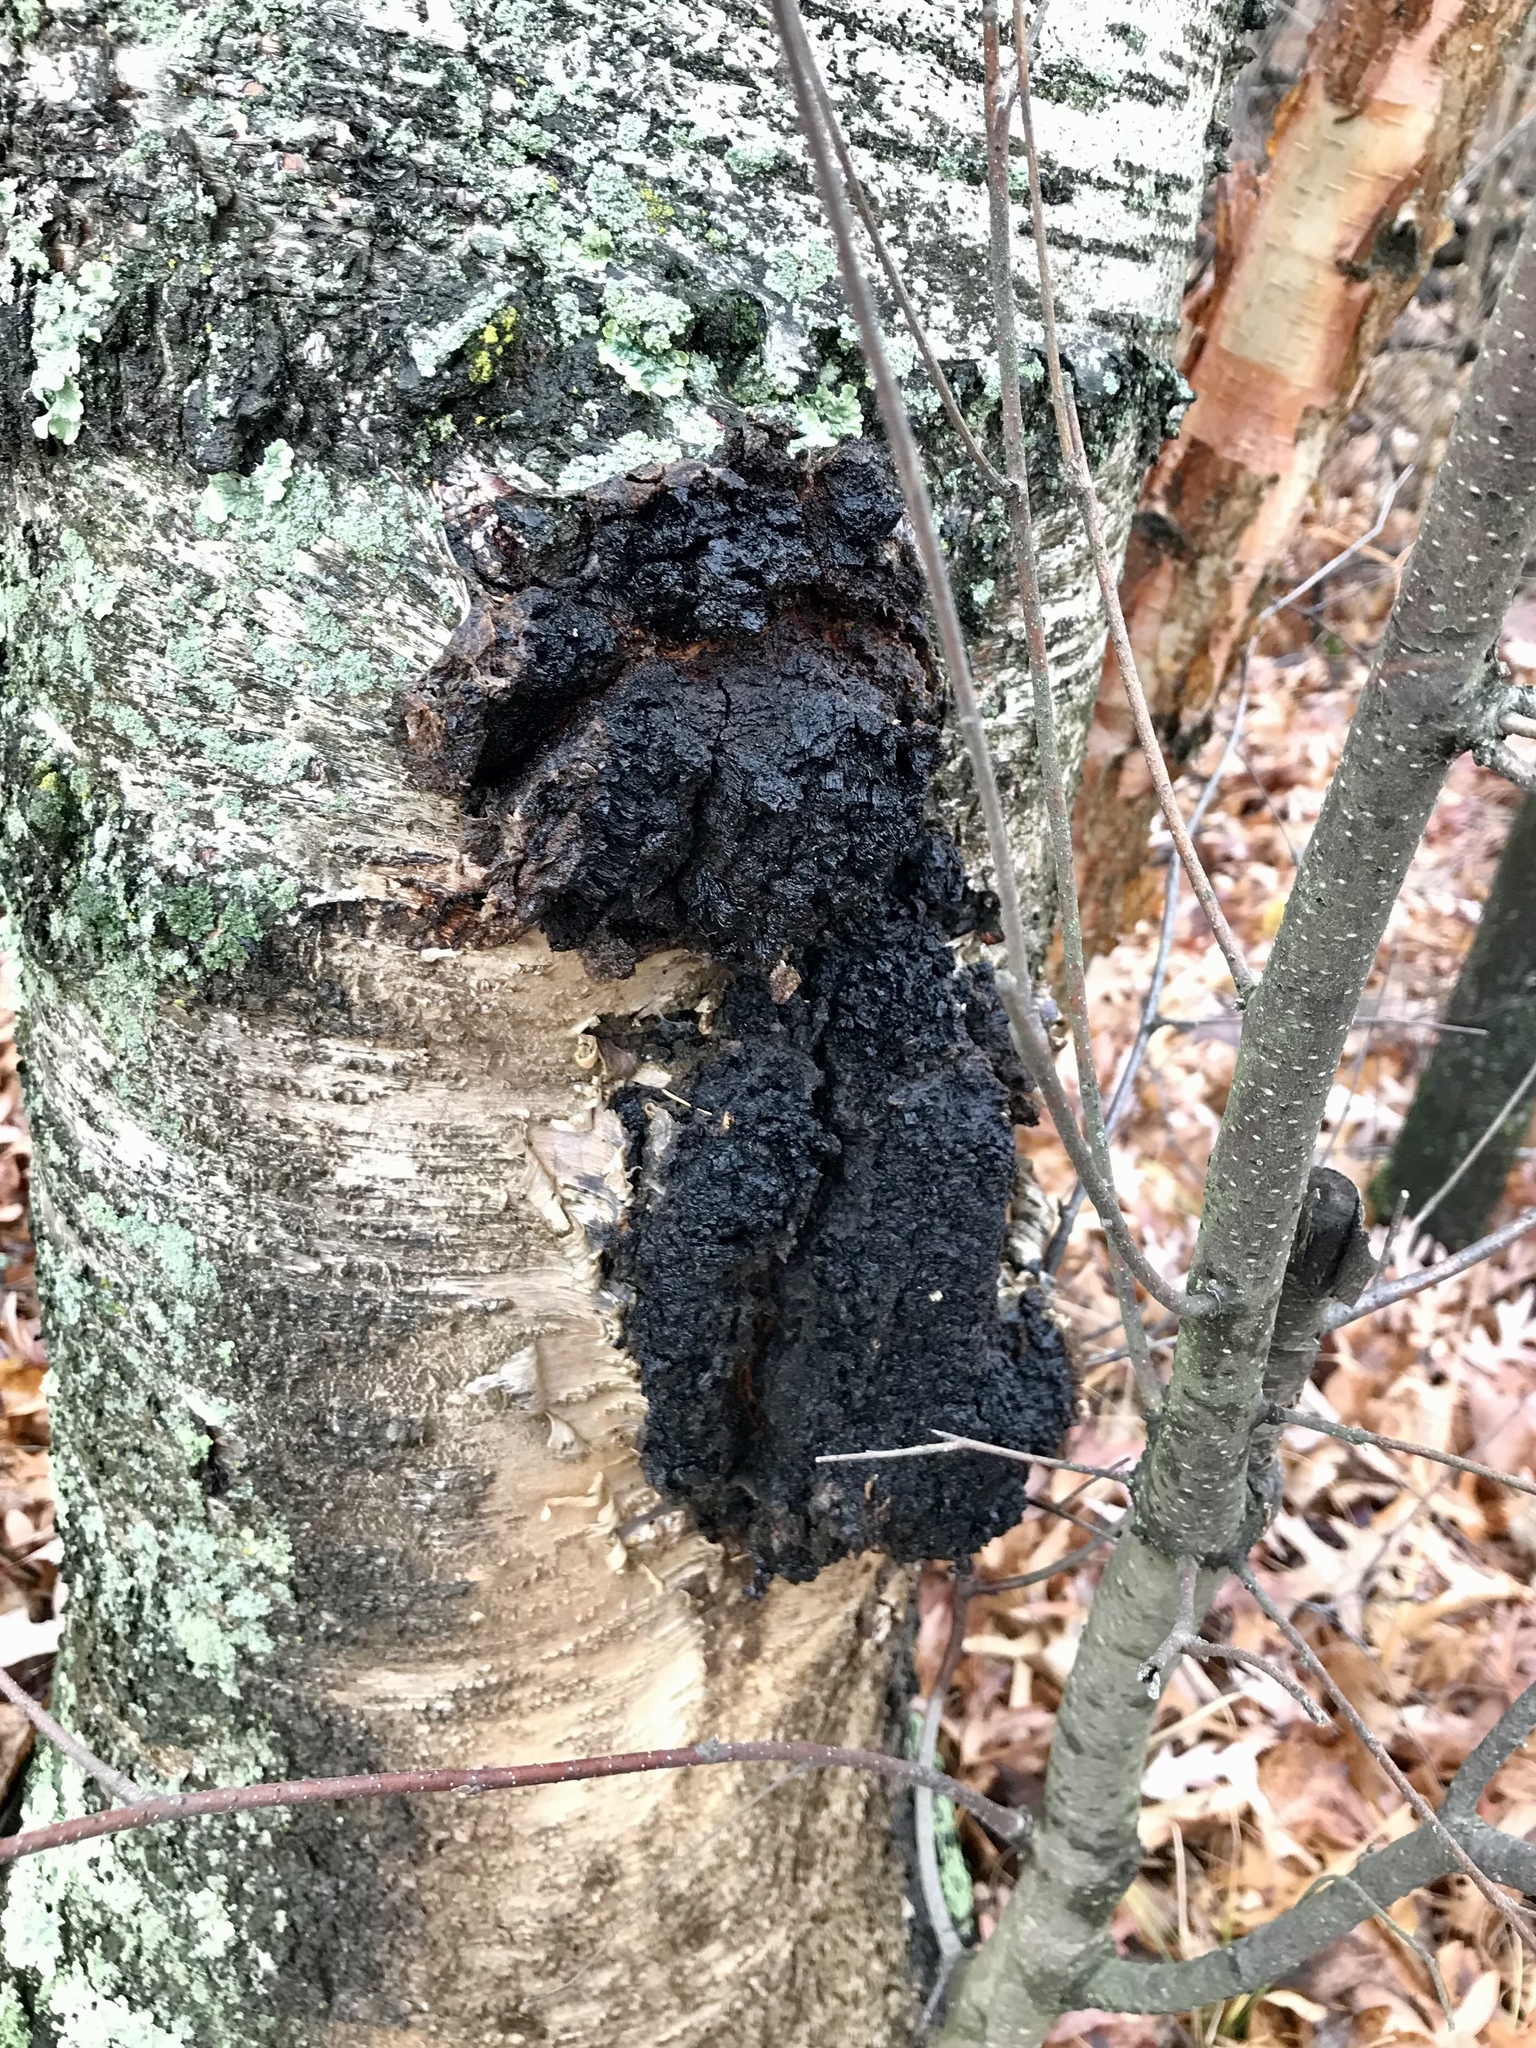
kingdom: Fungi
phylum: Basidiomycota
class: Agaricomycetes
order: Hymenochaetales
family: Hymenochaetaceae
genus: Inonotus
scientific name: Inonotus obliquus
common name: Chaga
